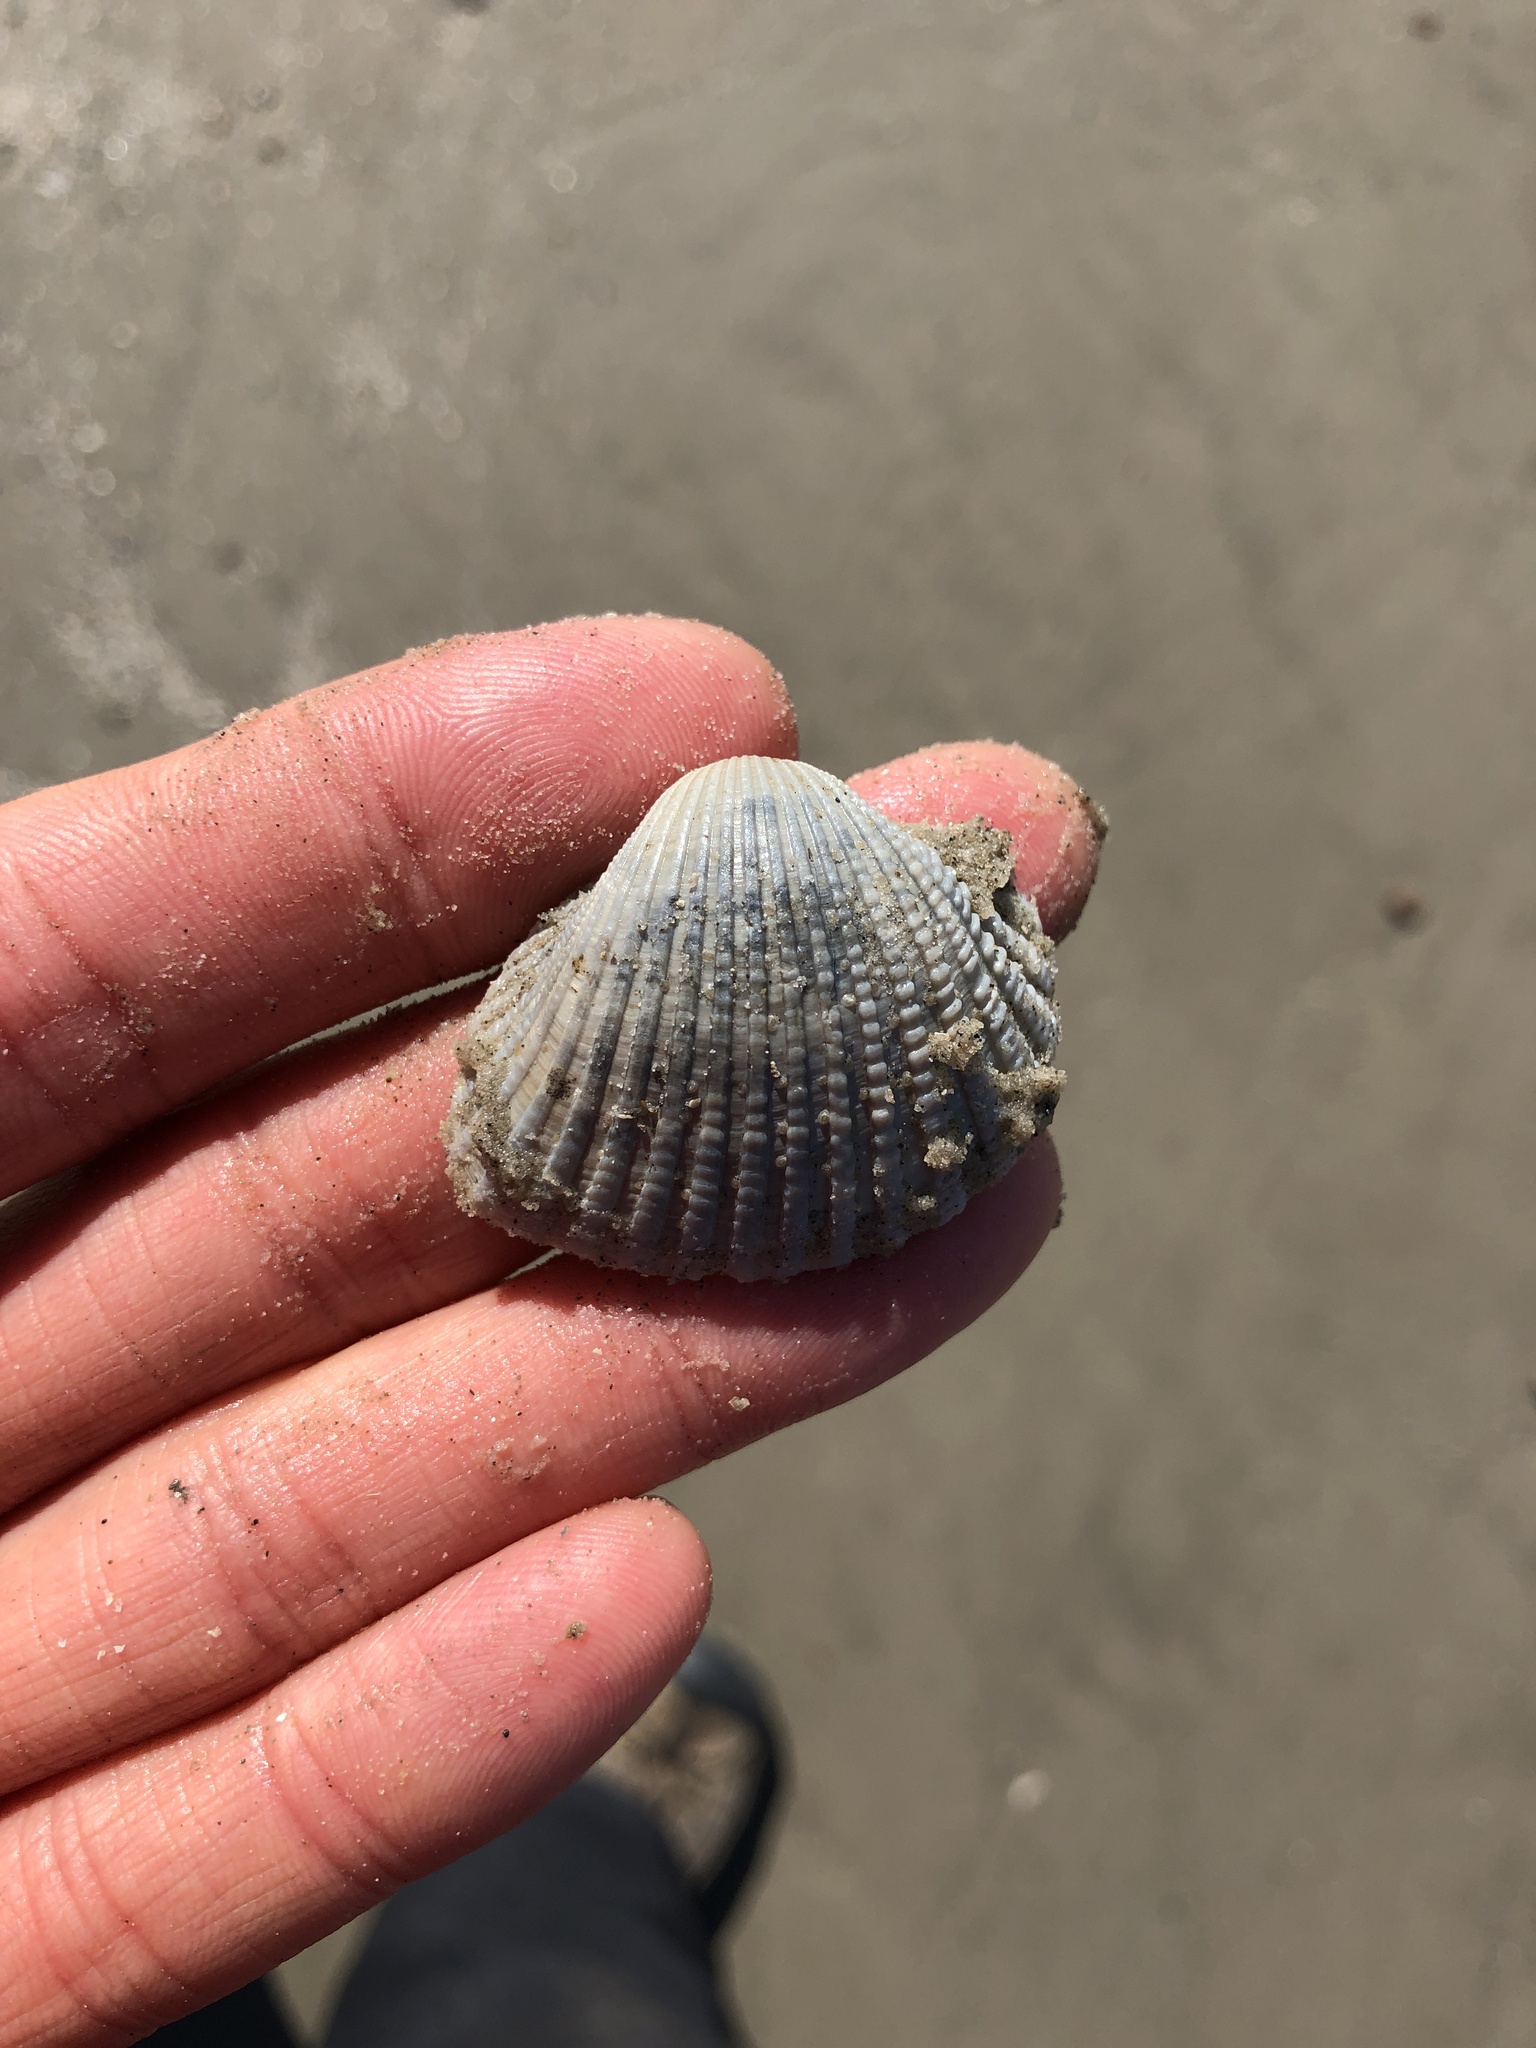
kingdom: Animalia
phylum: Mollusca
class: Bivalvia
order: Arcida
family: Arcidae
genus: Anadara
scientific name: Anadara brasiliana
